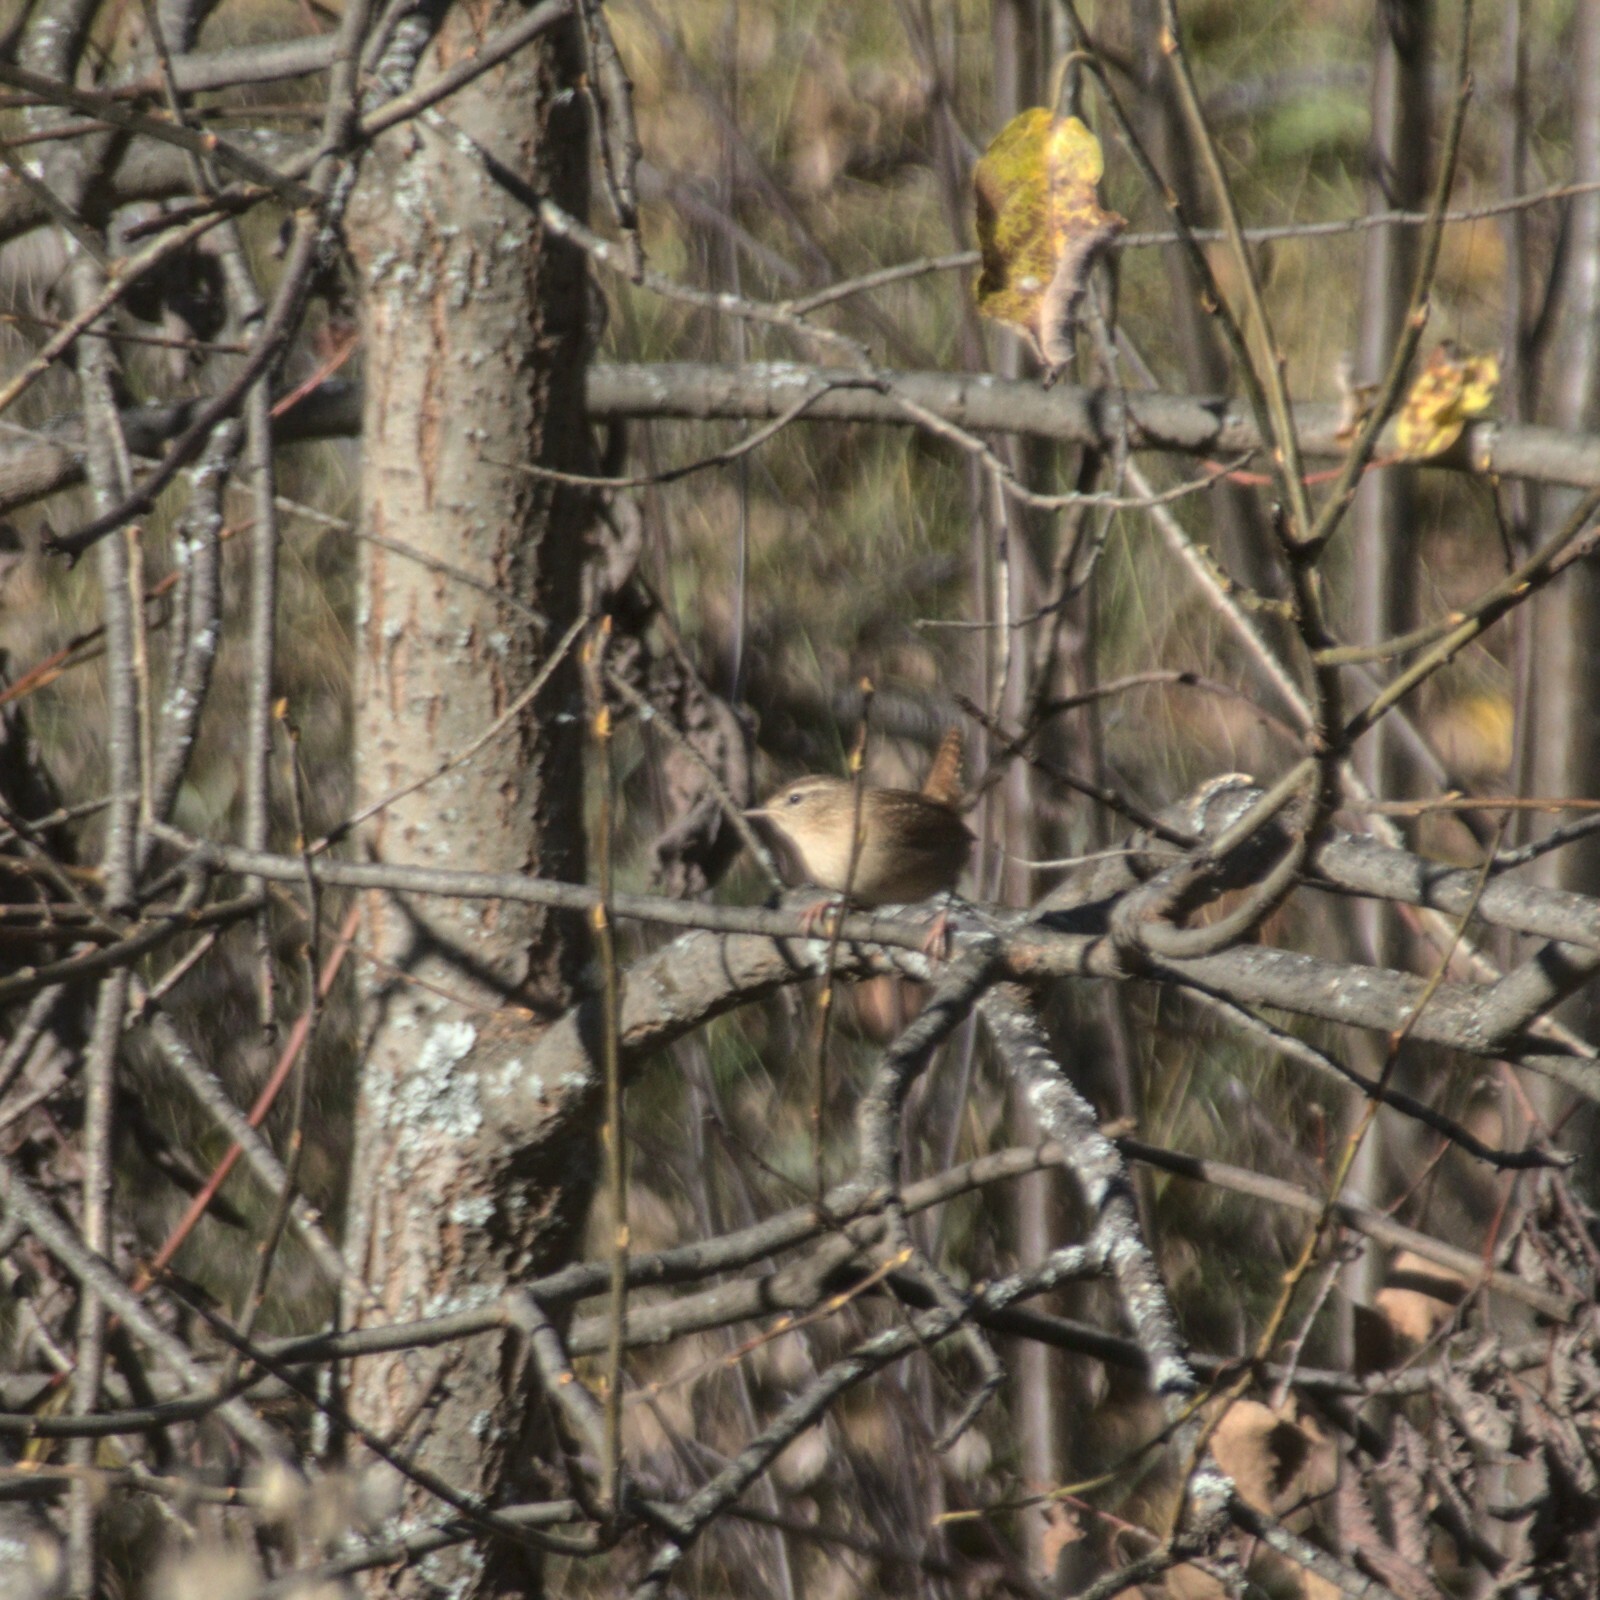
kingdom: Animalia
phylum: Chordata
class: Aves
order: Passeriformes
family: Troglodytidae
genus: Troglodytes
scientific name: Troglodytes troglodytes
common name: Eurasian wren
